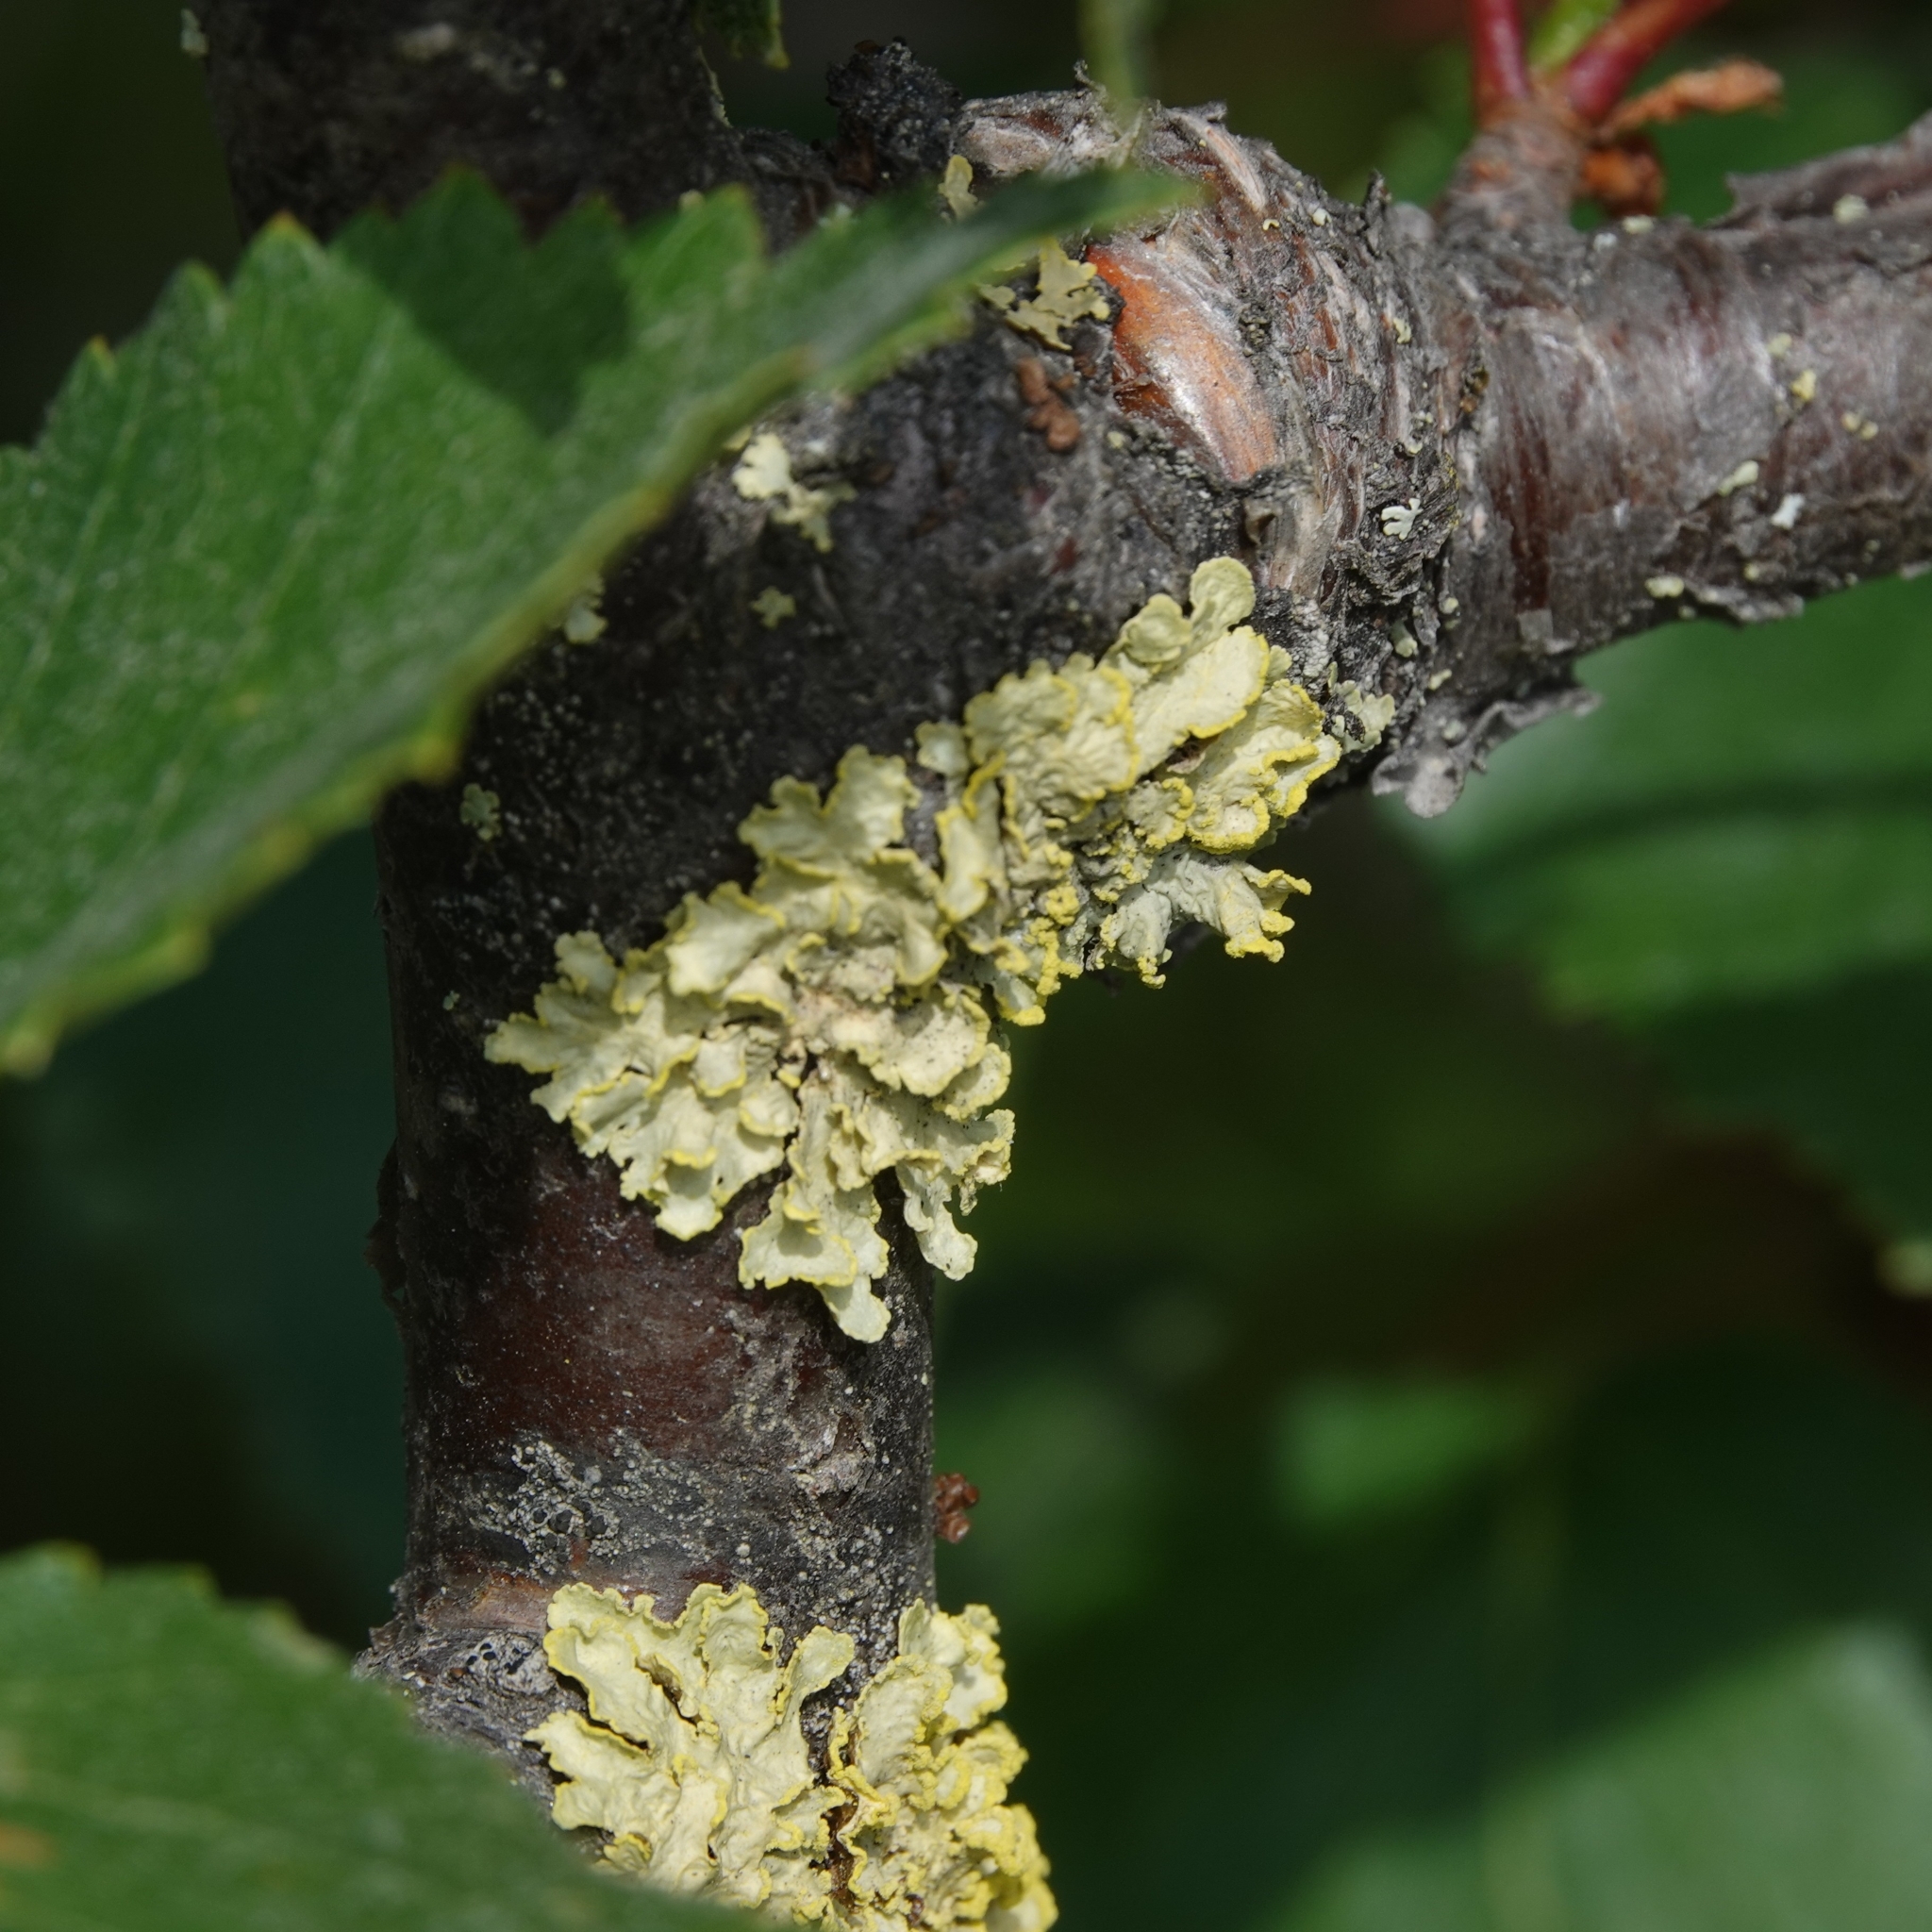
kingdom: Fungi
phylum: Ascomycota
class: Lecanoromycetes
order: Lecanorales
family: Parmeliaceae
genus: Vulpicida
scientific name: Vulpicida pinastri
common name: Powdered sunshine lichen
